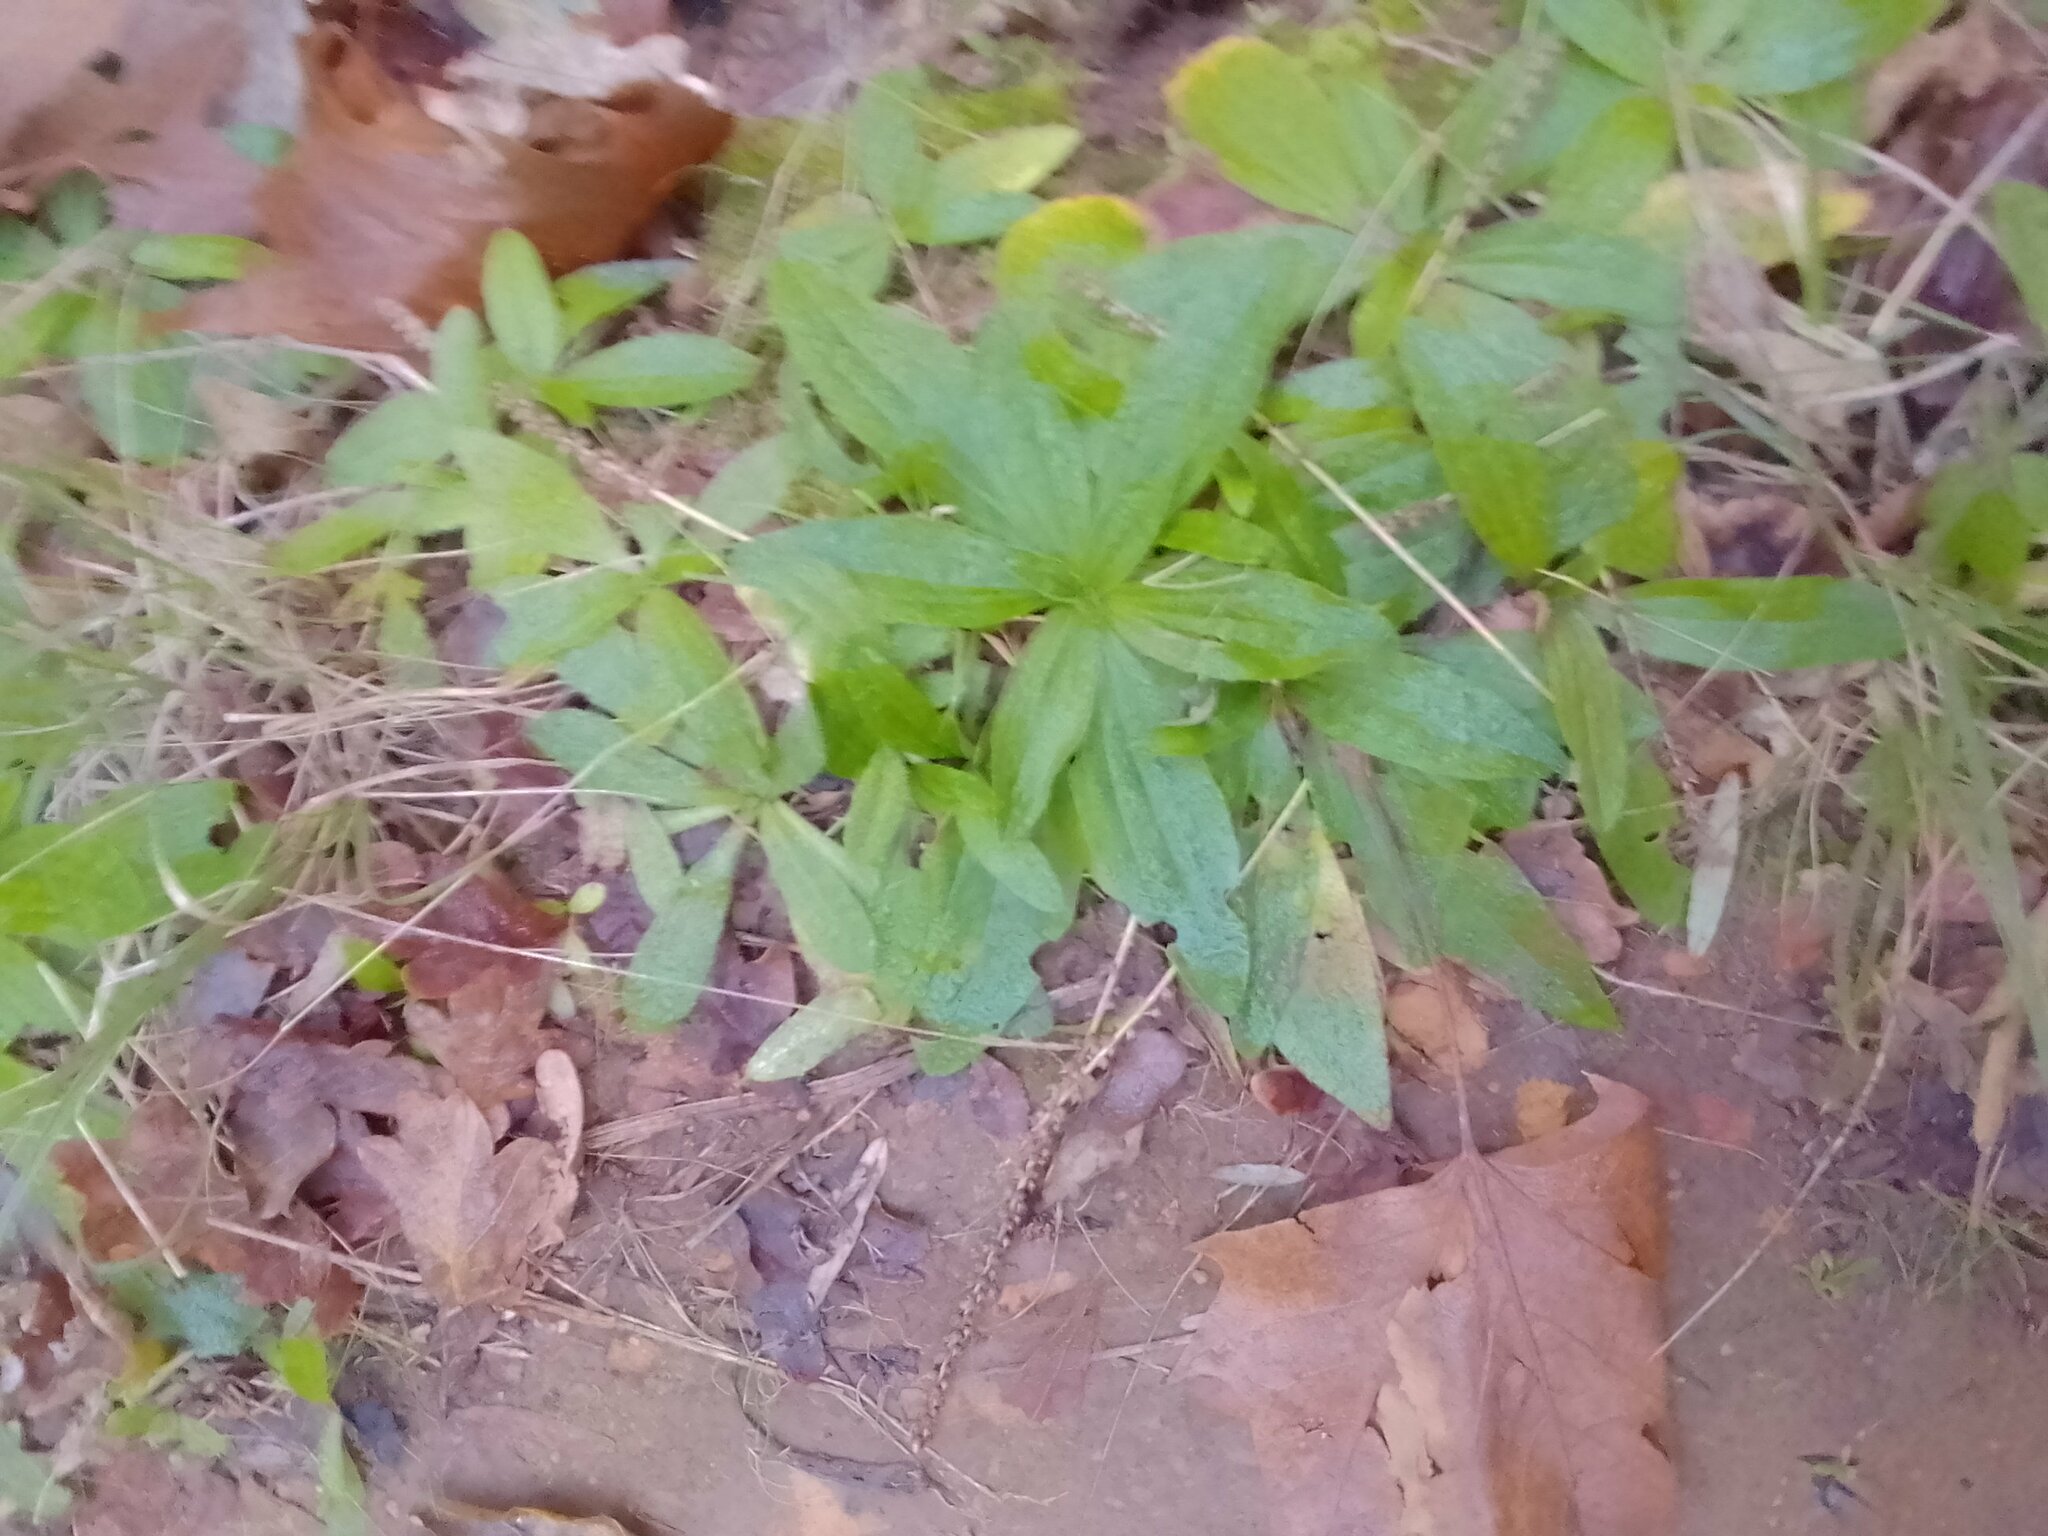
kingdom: Plantae
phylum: Tracheophyta
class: Magnoliopsida
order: Lamiales
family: Plantaginaceae
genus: Plantago
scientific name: Plantago myosuros
